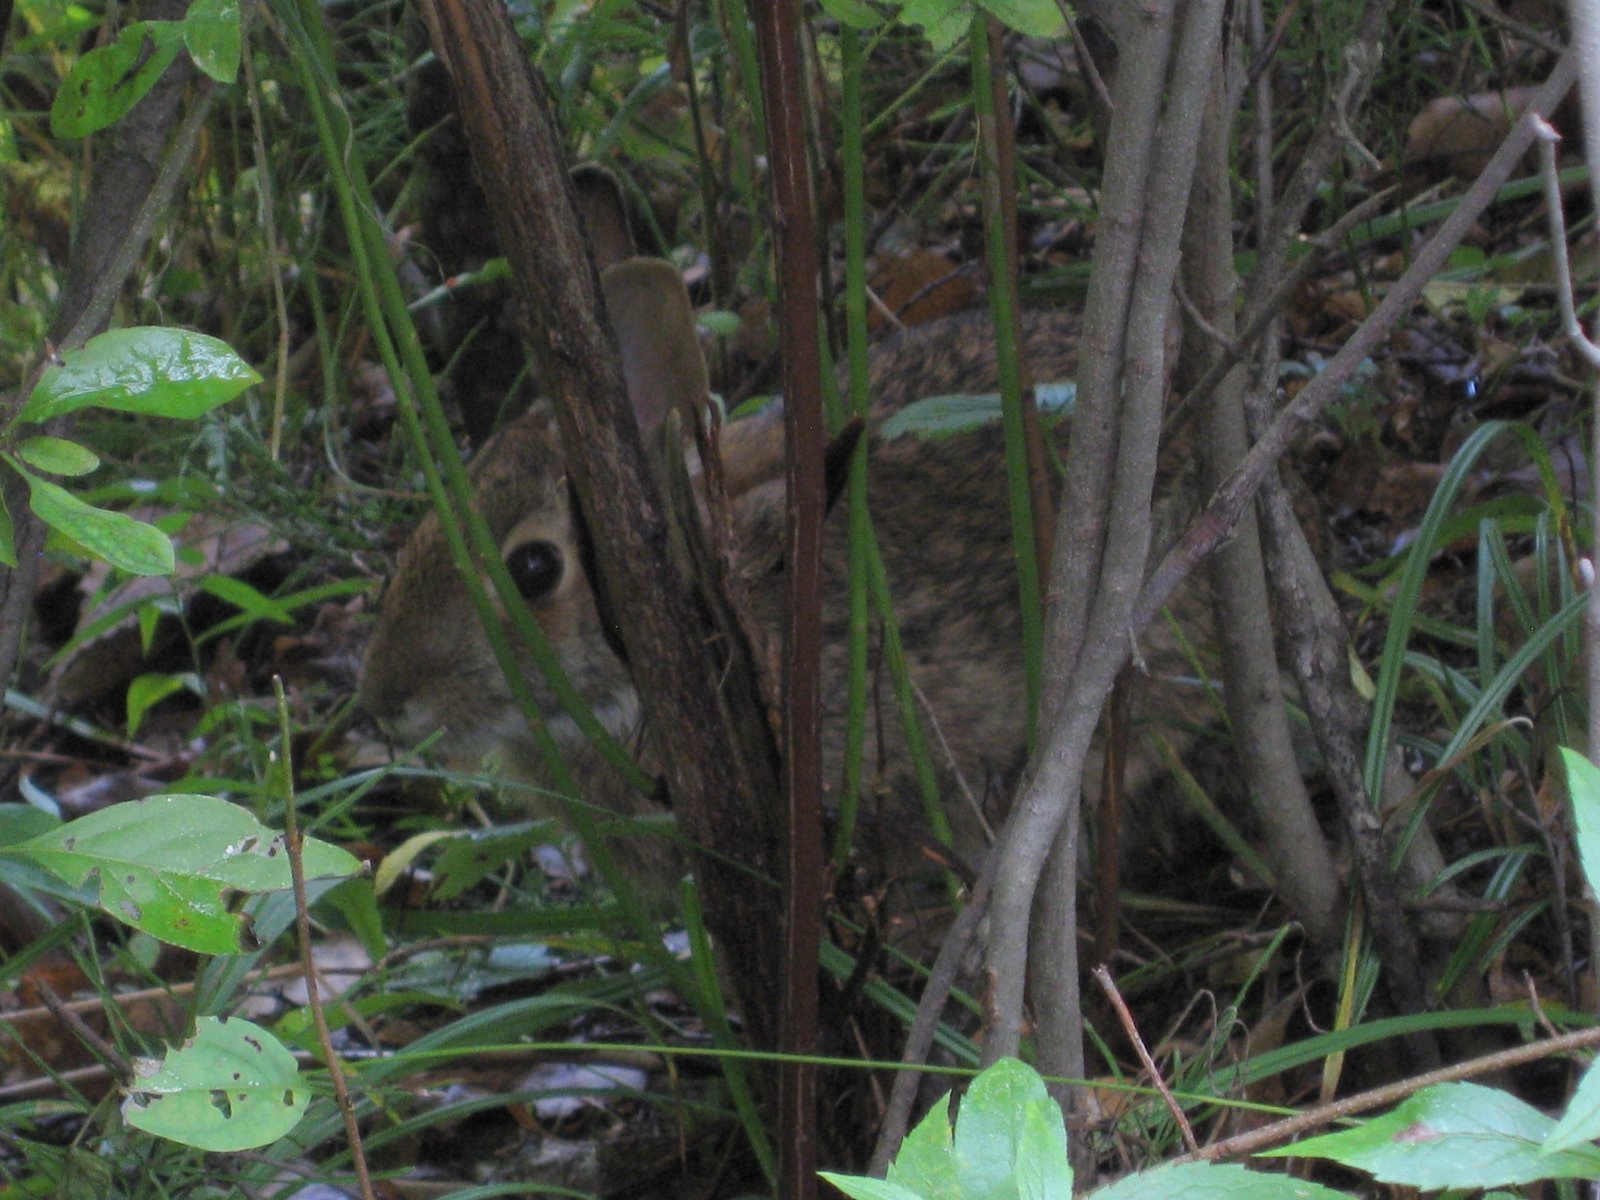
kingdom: Animalia
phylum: Chordata
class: Mammalia
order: Lagomorpha
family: Leporidae
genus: Sylvilagus
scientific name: Sylvilagus floridanus
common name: Eastern cottontail
